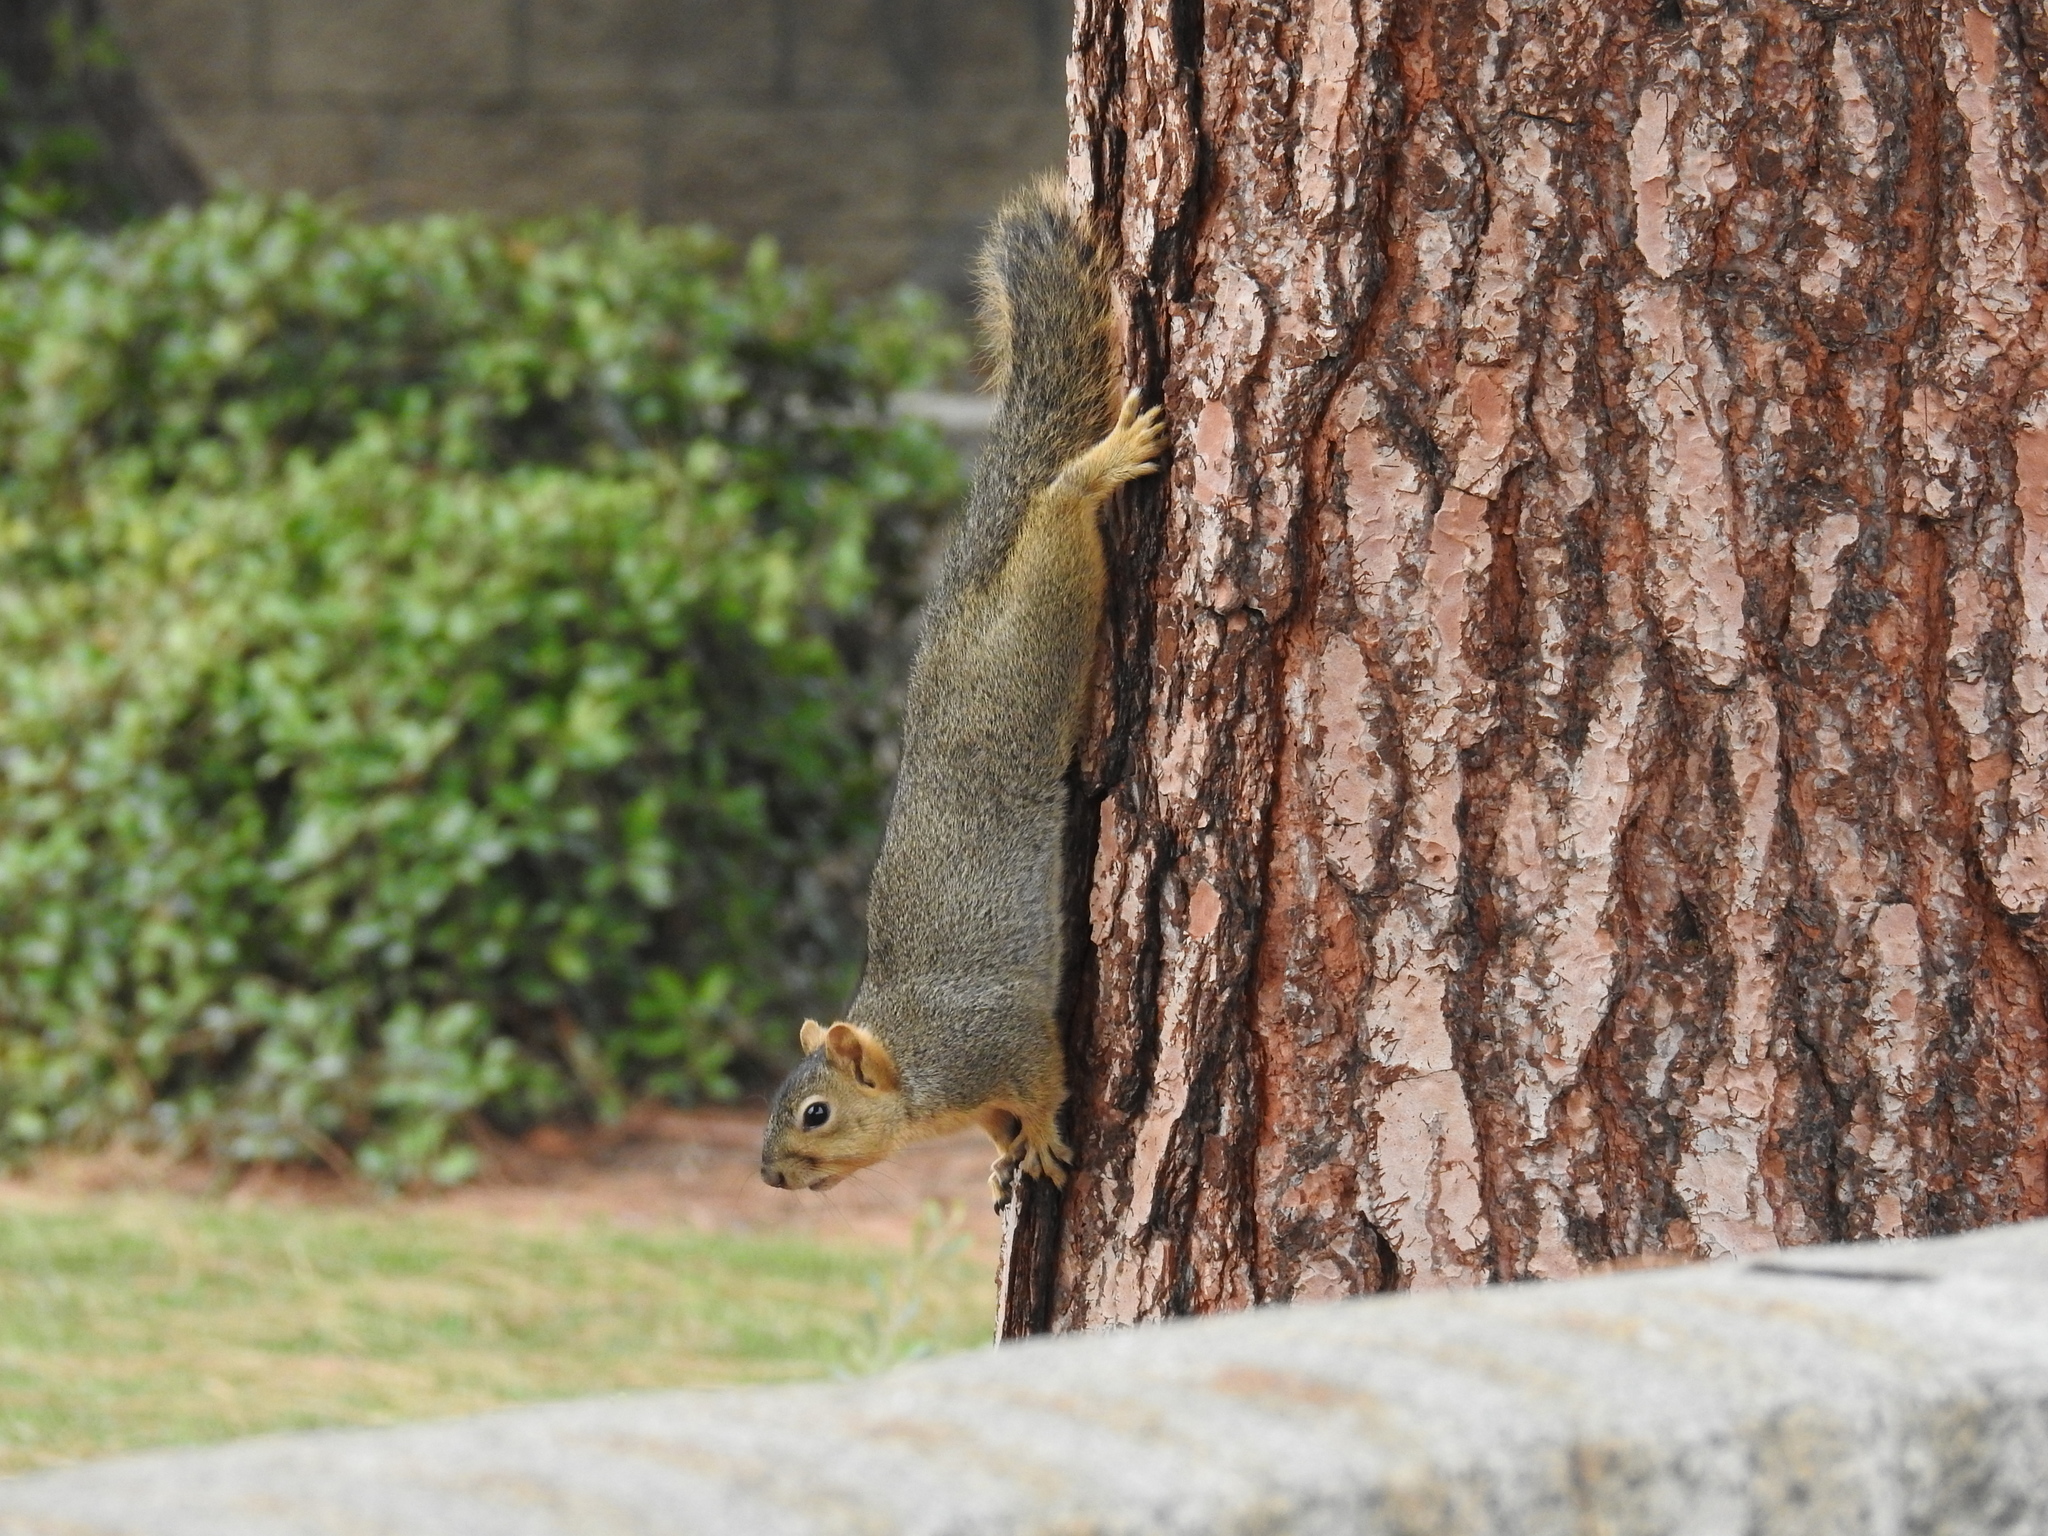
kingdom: Animalia
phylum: Chordata
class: Mammalia
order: Rodentia
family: Sciuridae
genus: Sciurus
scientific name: Sciurus niger
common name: Fox squirrel
